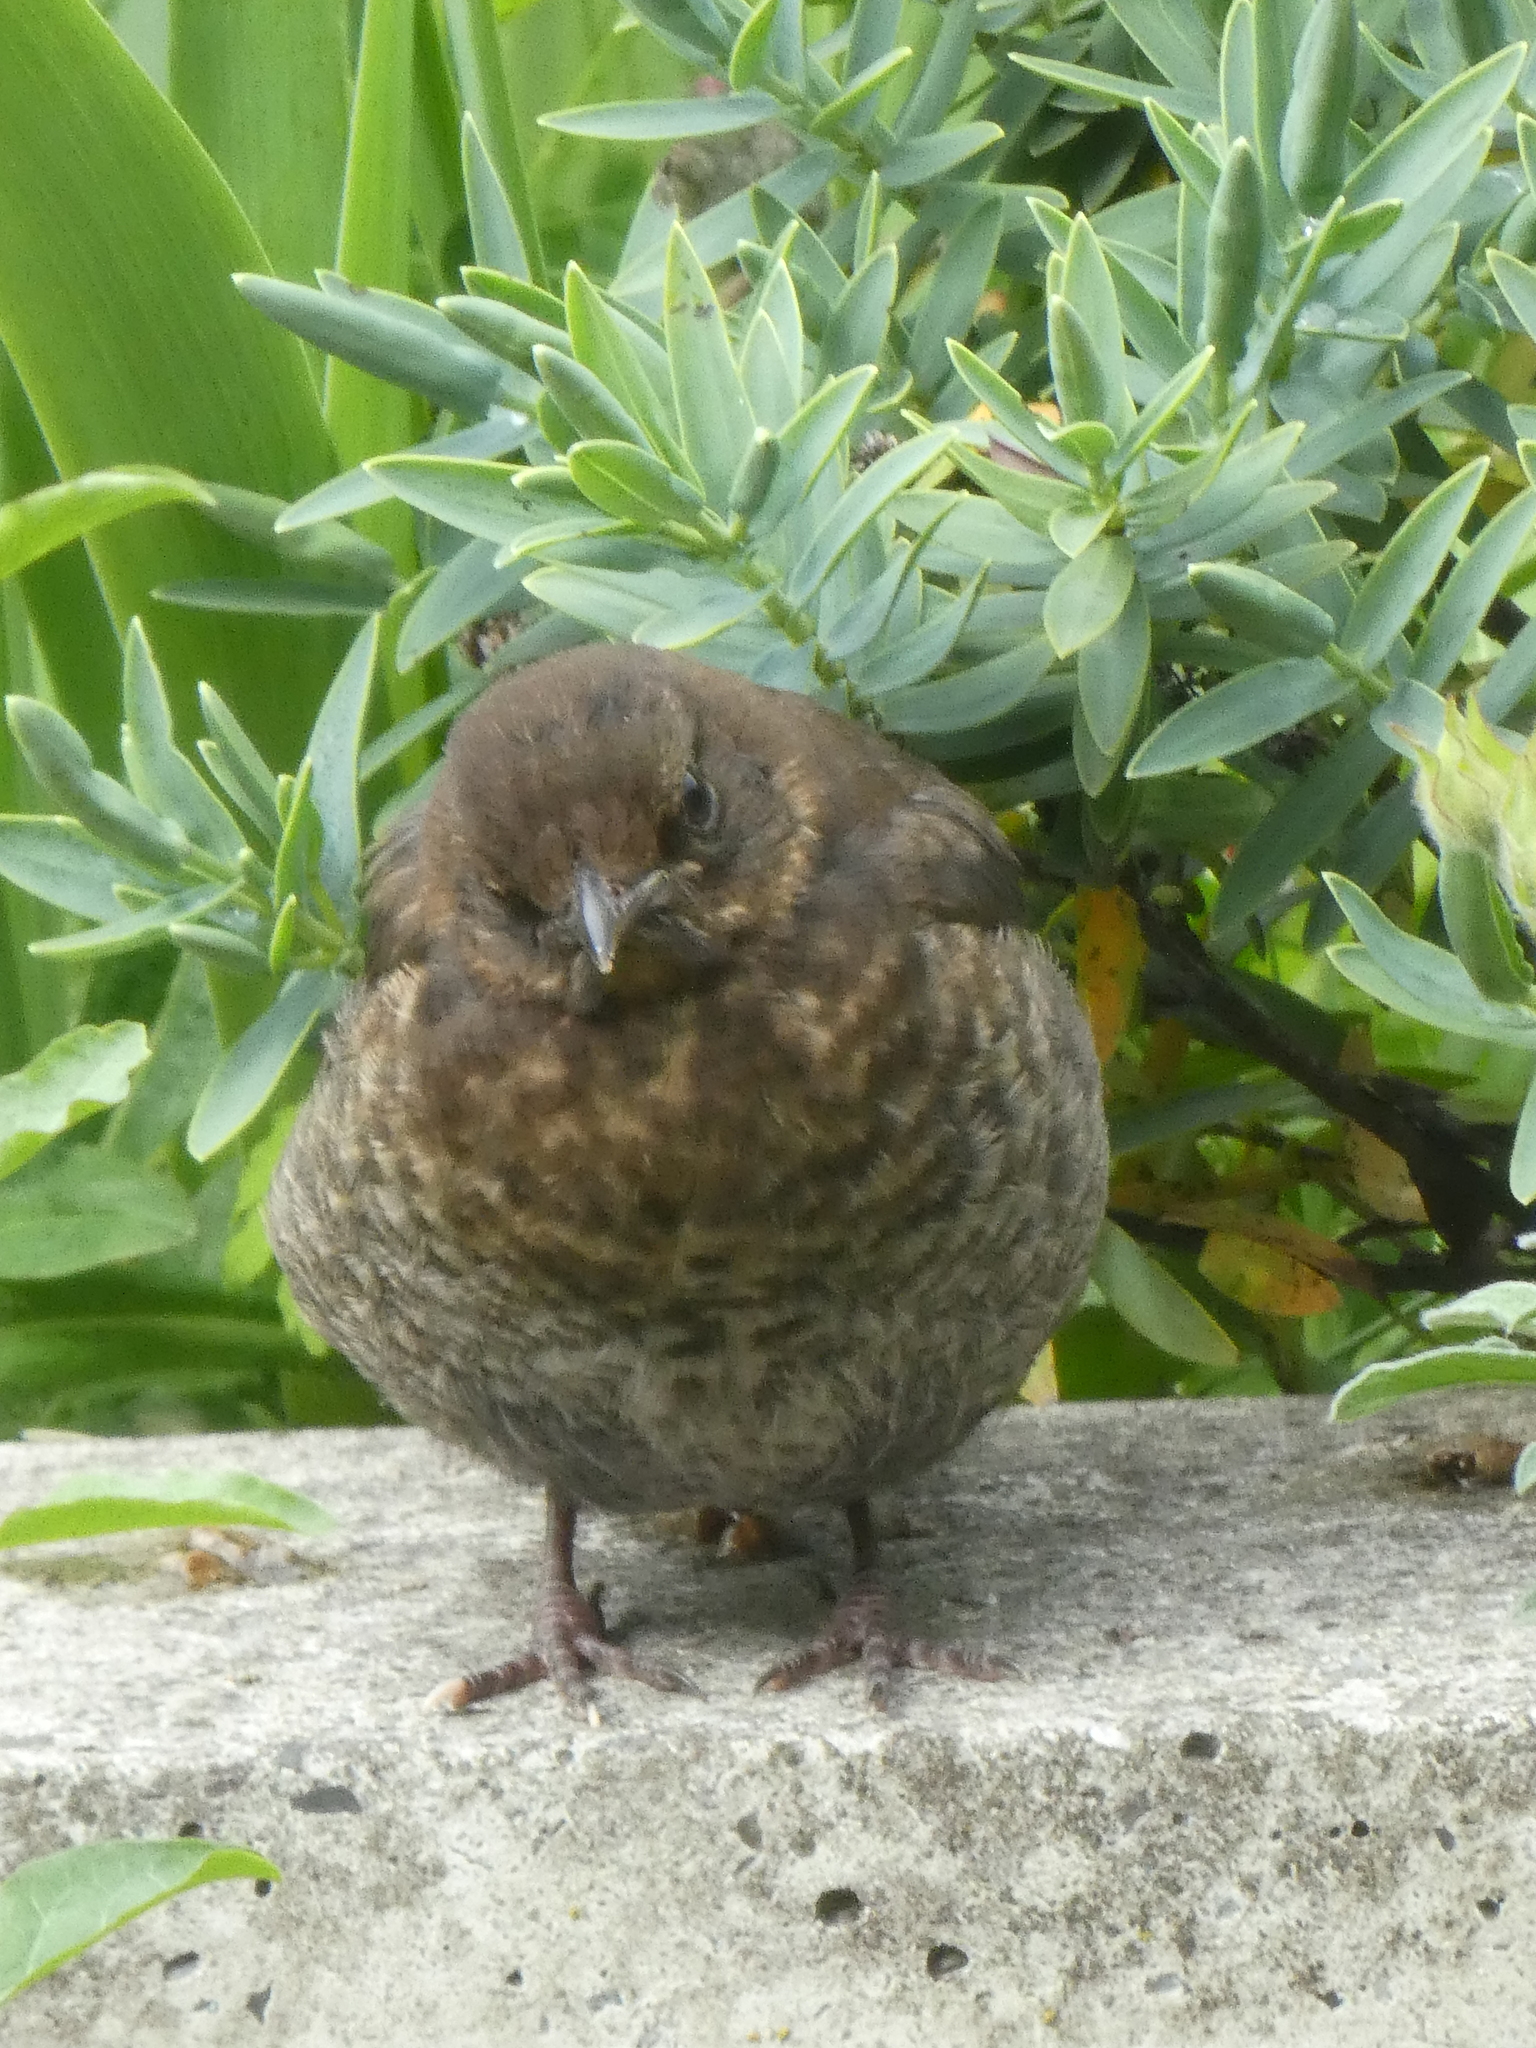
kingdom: Animalia
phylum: Chordata
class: Aves
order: Passeriformes
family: Turdidae
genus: Turdus
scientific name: Turdus merula
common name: Common blackbird
